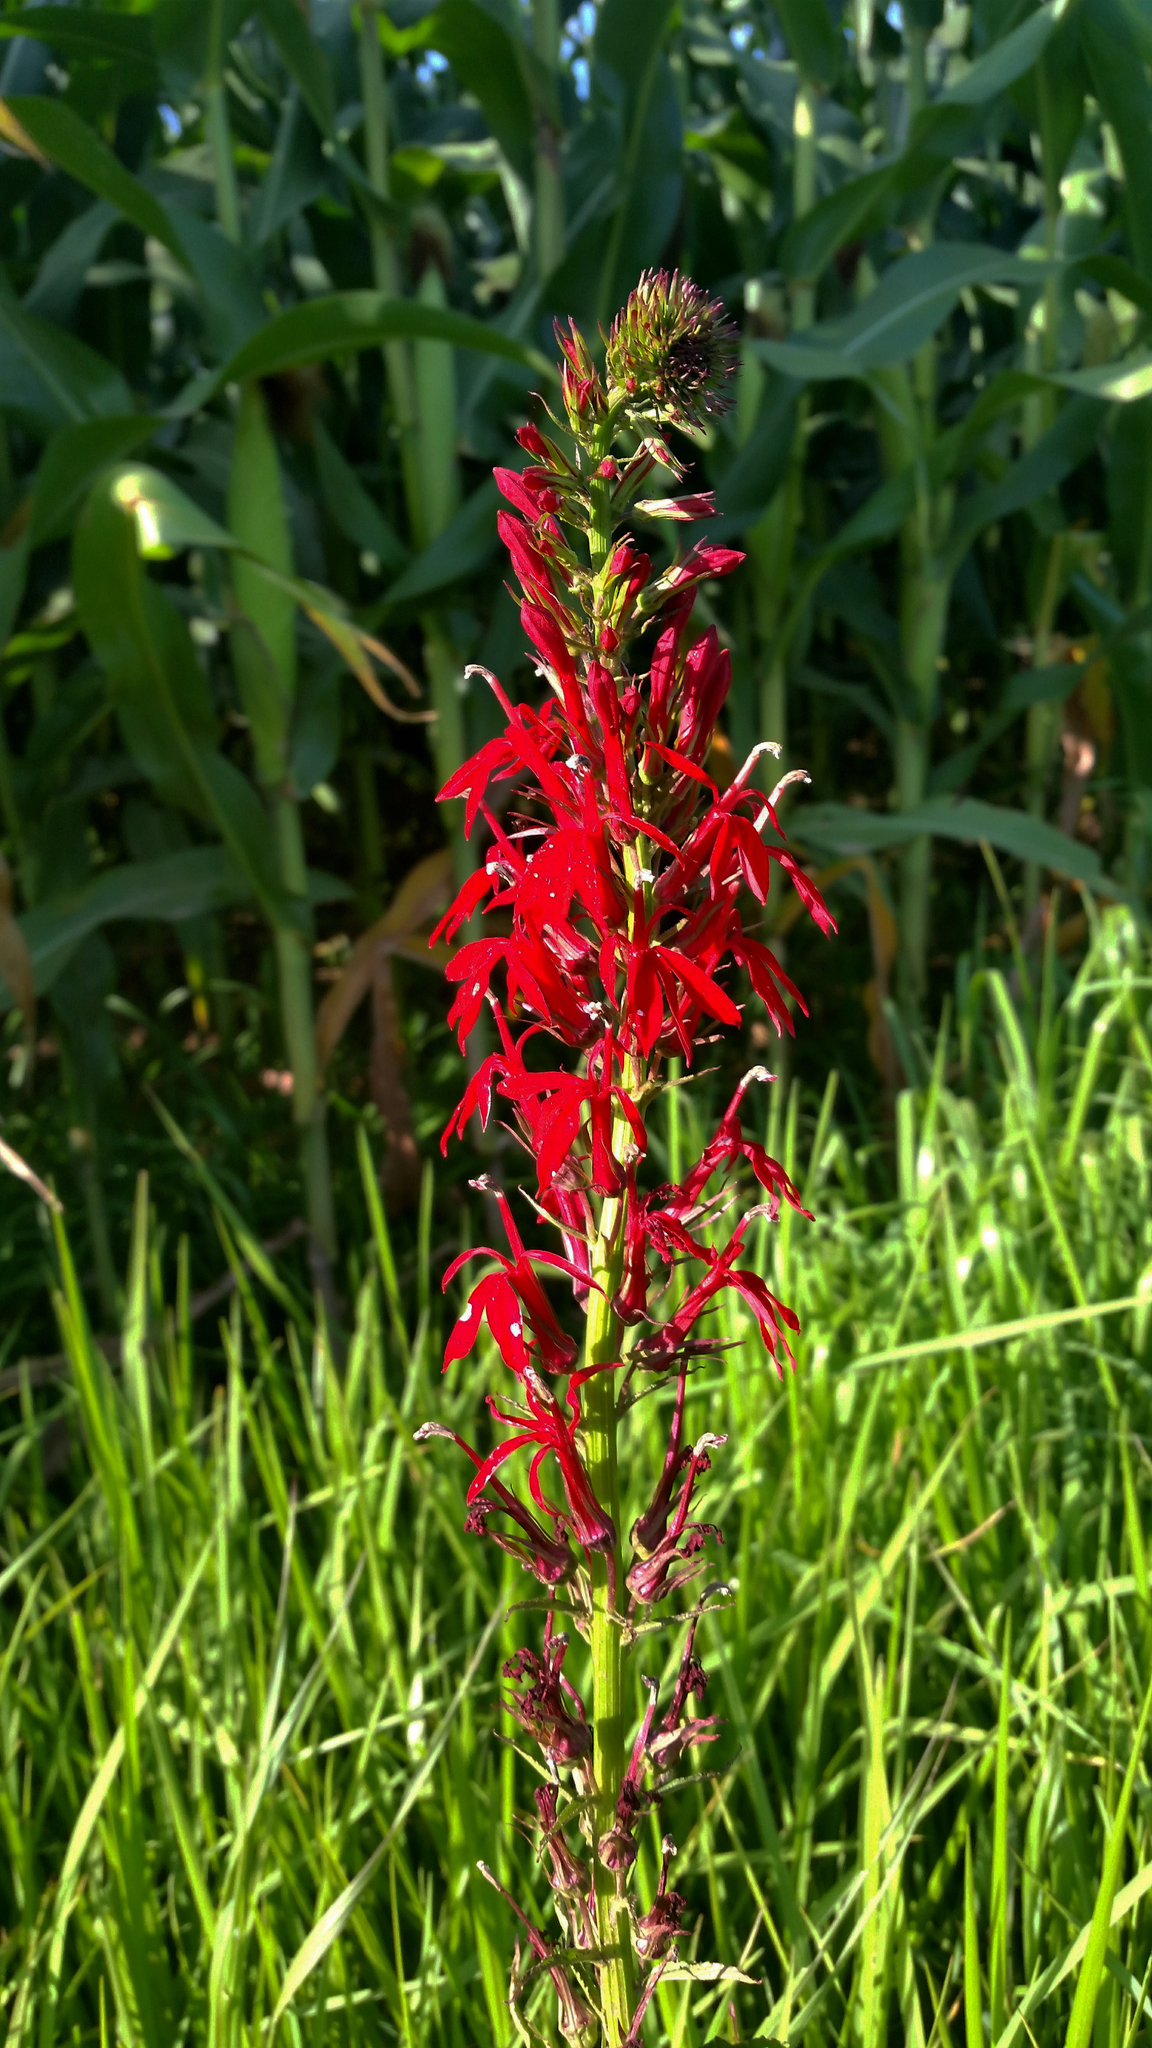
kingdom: Plantae
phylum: Tracheophyta
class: Magnoliopsida
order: Asterales
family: Campanulaceae
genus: Lobelia
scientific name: Lobelia cardinalis
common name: Cardinal flower
